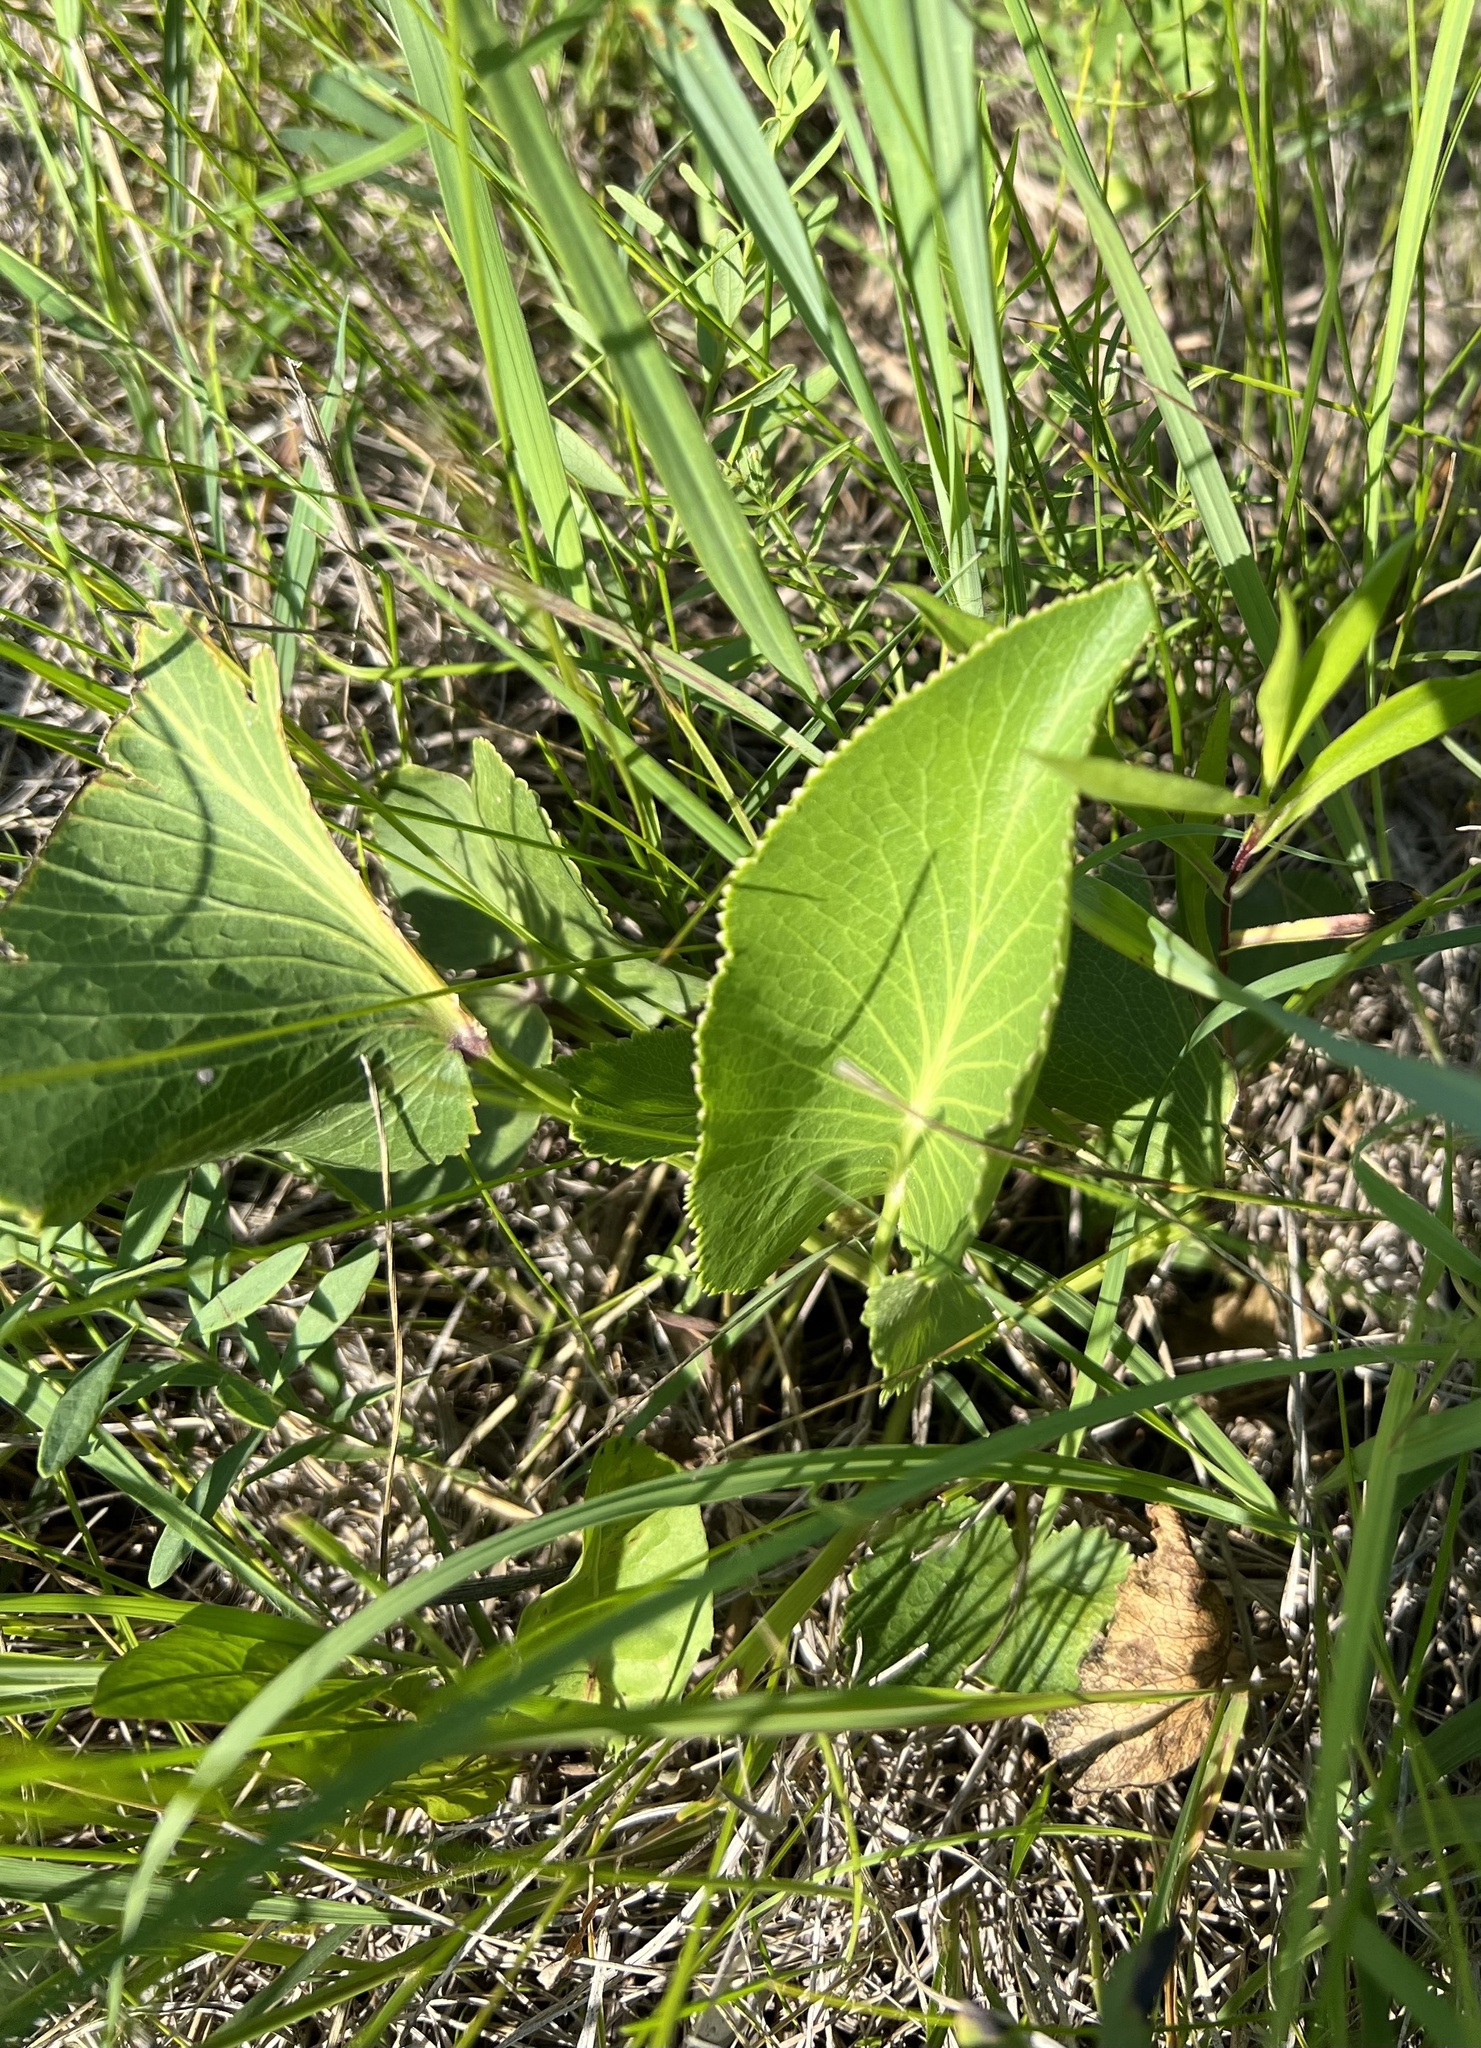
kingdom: Plantae
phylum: Tracheophyta
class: Magnoliopsida
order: Apiales
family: Apiaceae
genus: Zizia
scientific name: Zizia aptera
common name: Heart-leaved alexanders
